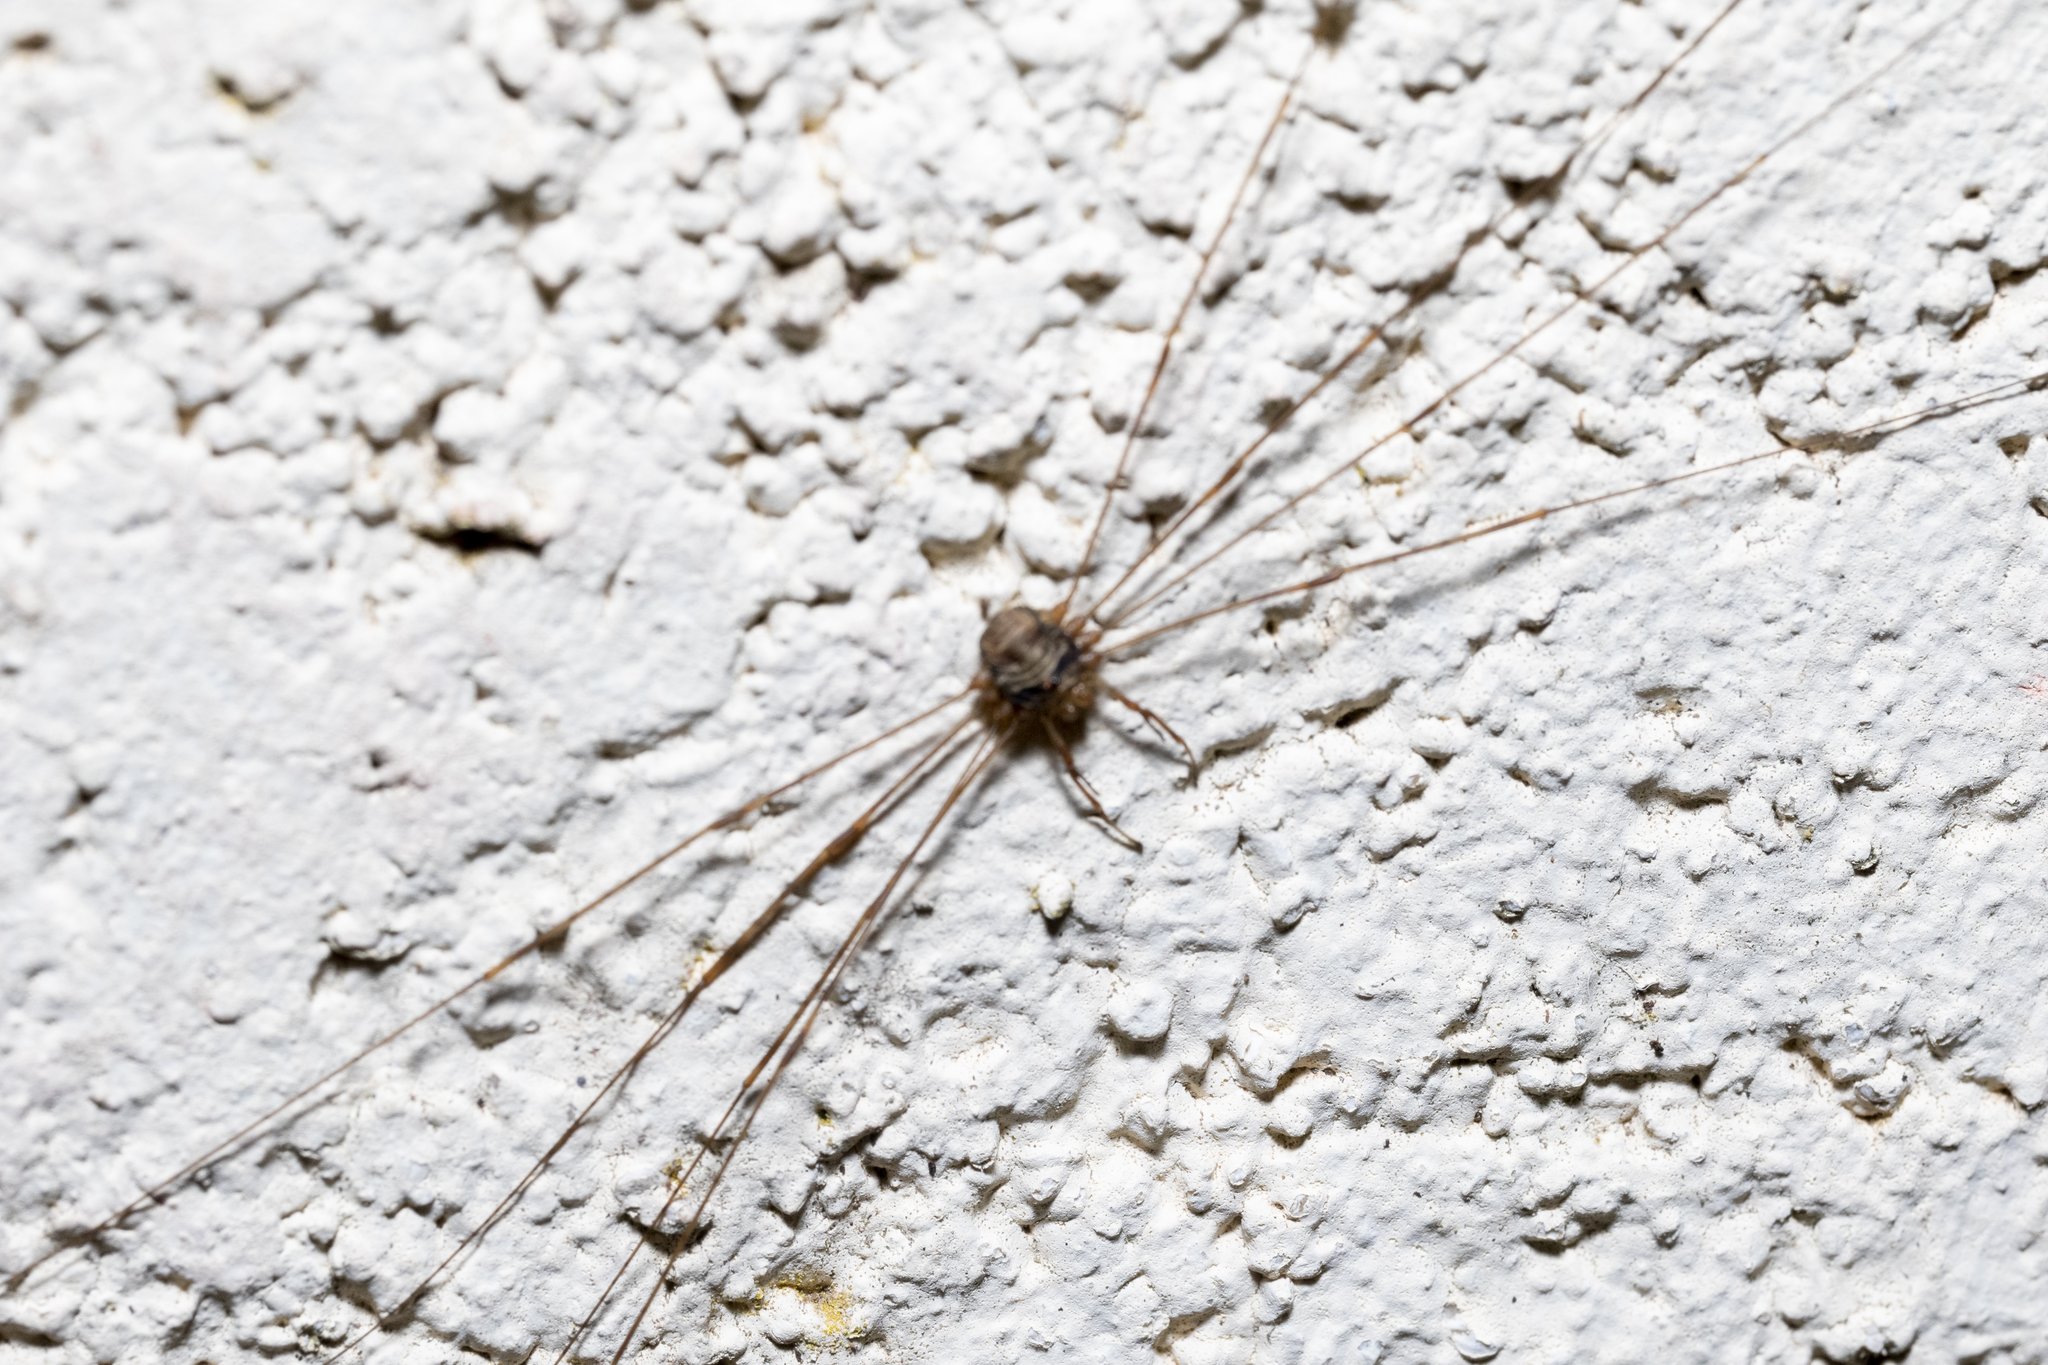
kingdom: Animalia
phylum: Arthropoda
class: Arachnida
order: Opiliones
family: Phalangiidae
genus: Dicranopalpus
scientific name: Dicranopalpus ramosus
